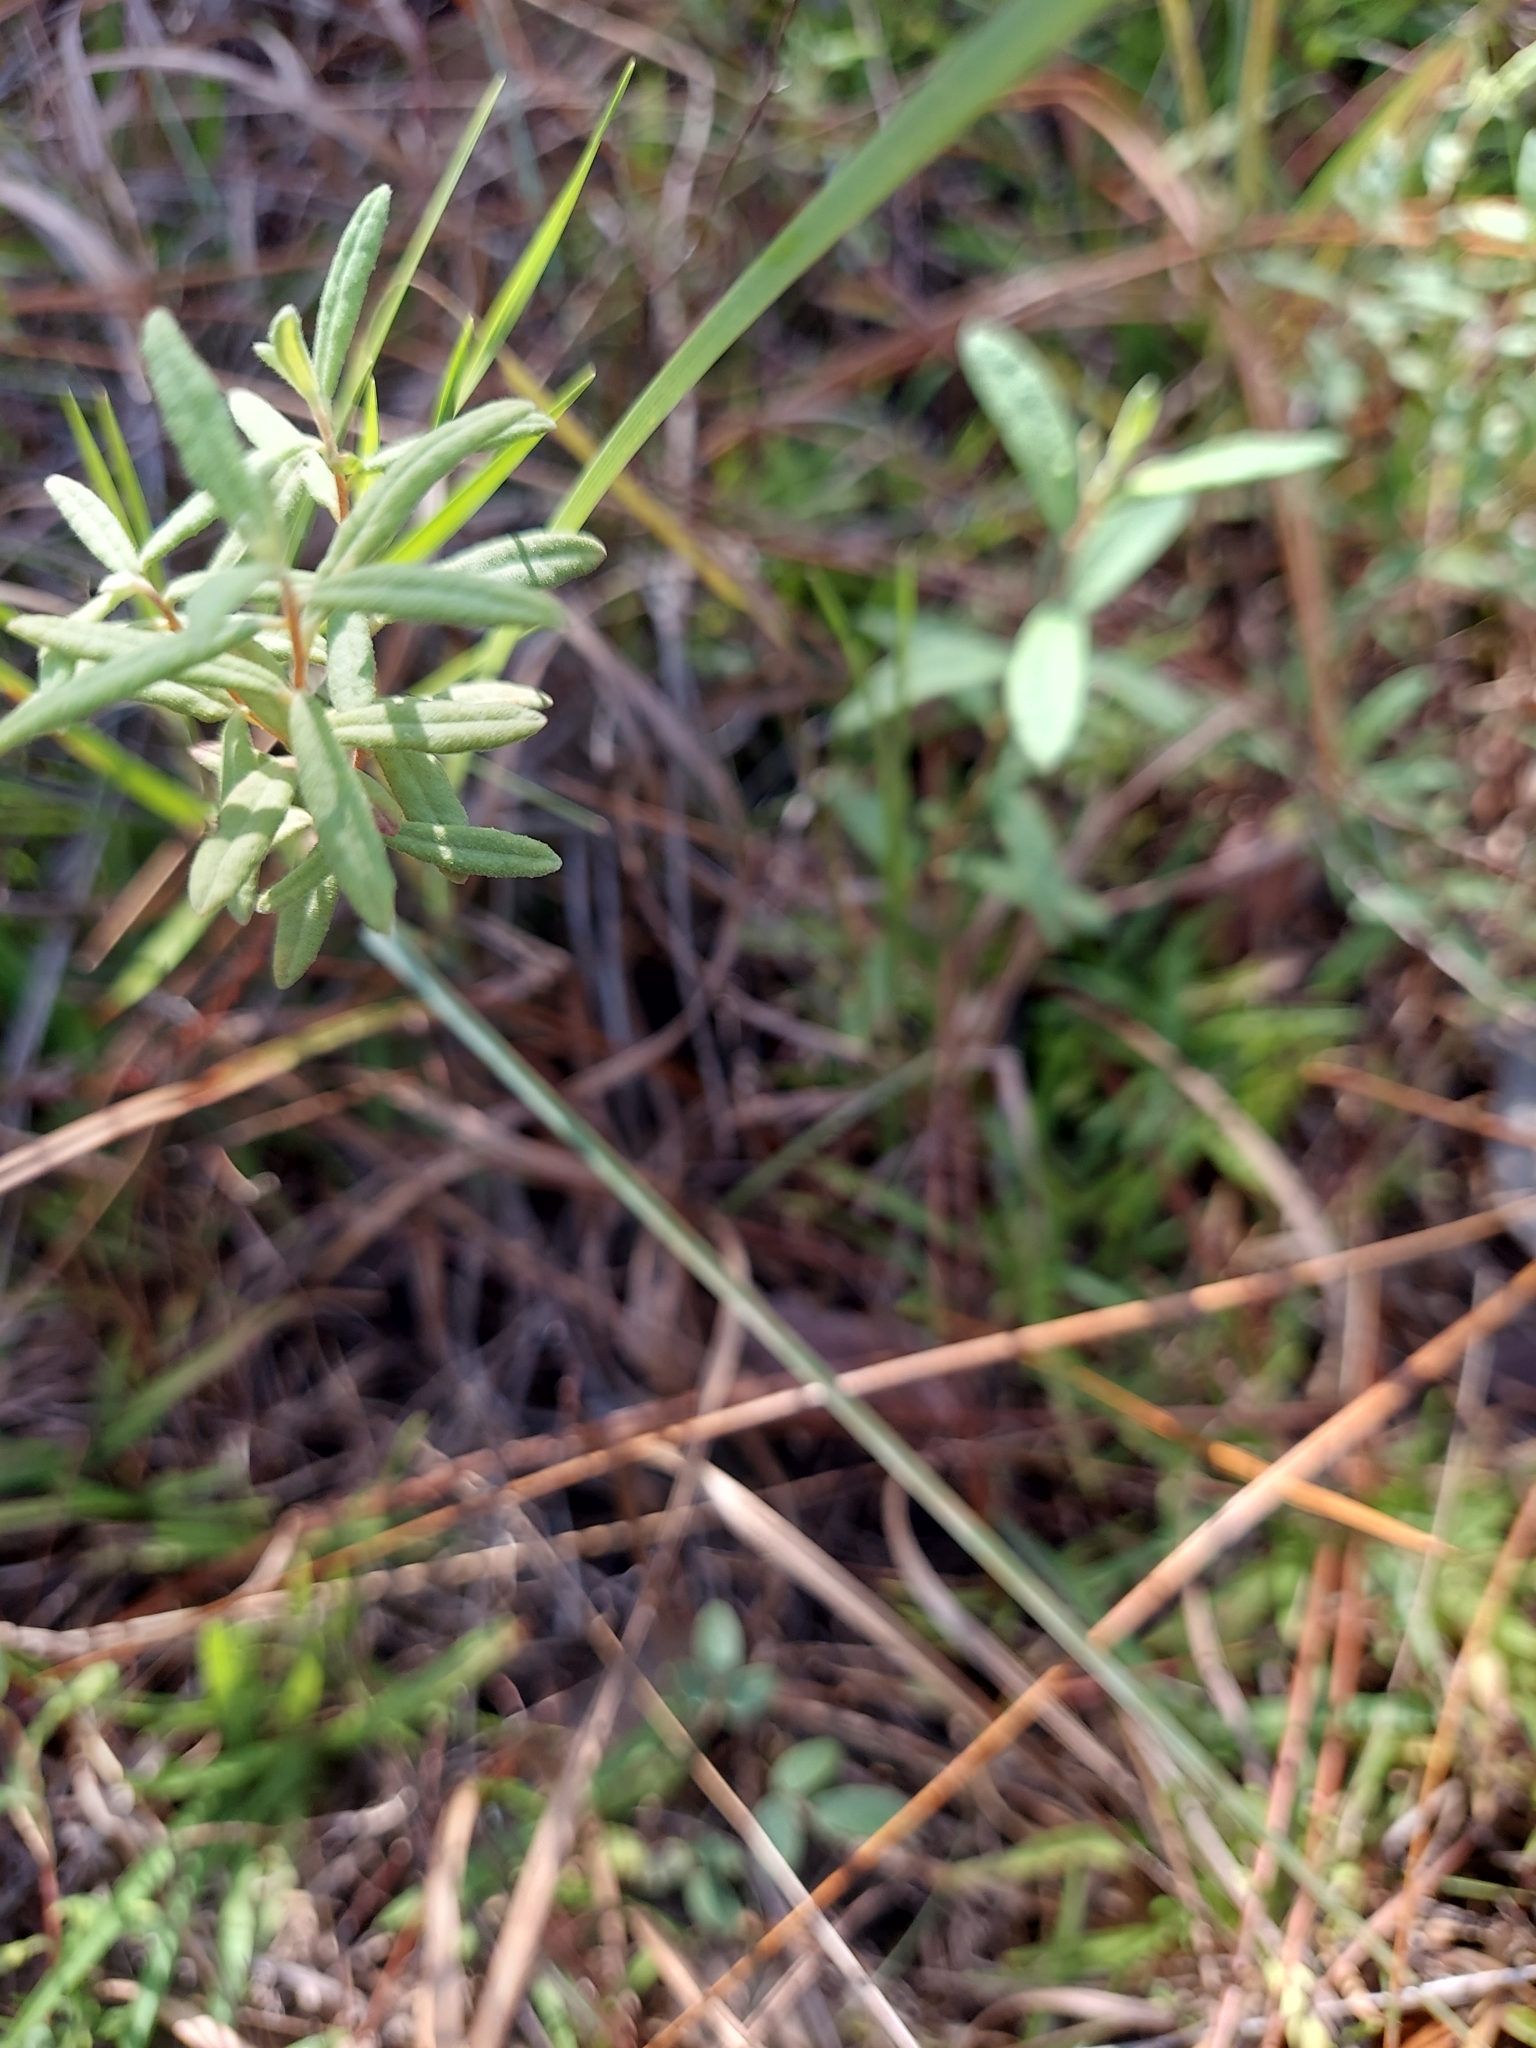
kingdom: Plantae
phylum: Tracheophyta
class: Magnoliopsida
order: Malvales
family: Cistaceae
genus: Crocanthemum
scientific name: Crocanthemum corymbosum
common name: Pinebarren sun-rose
